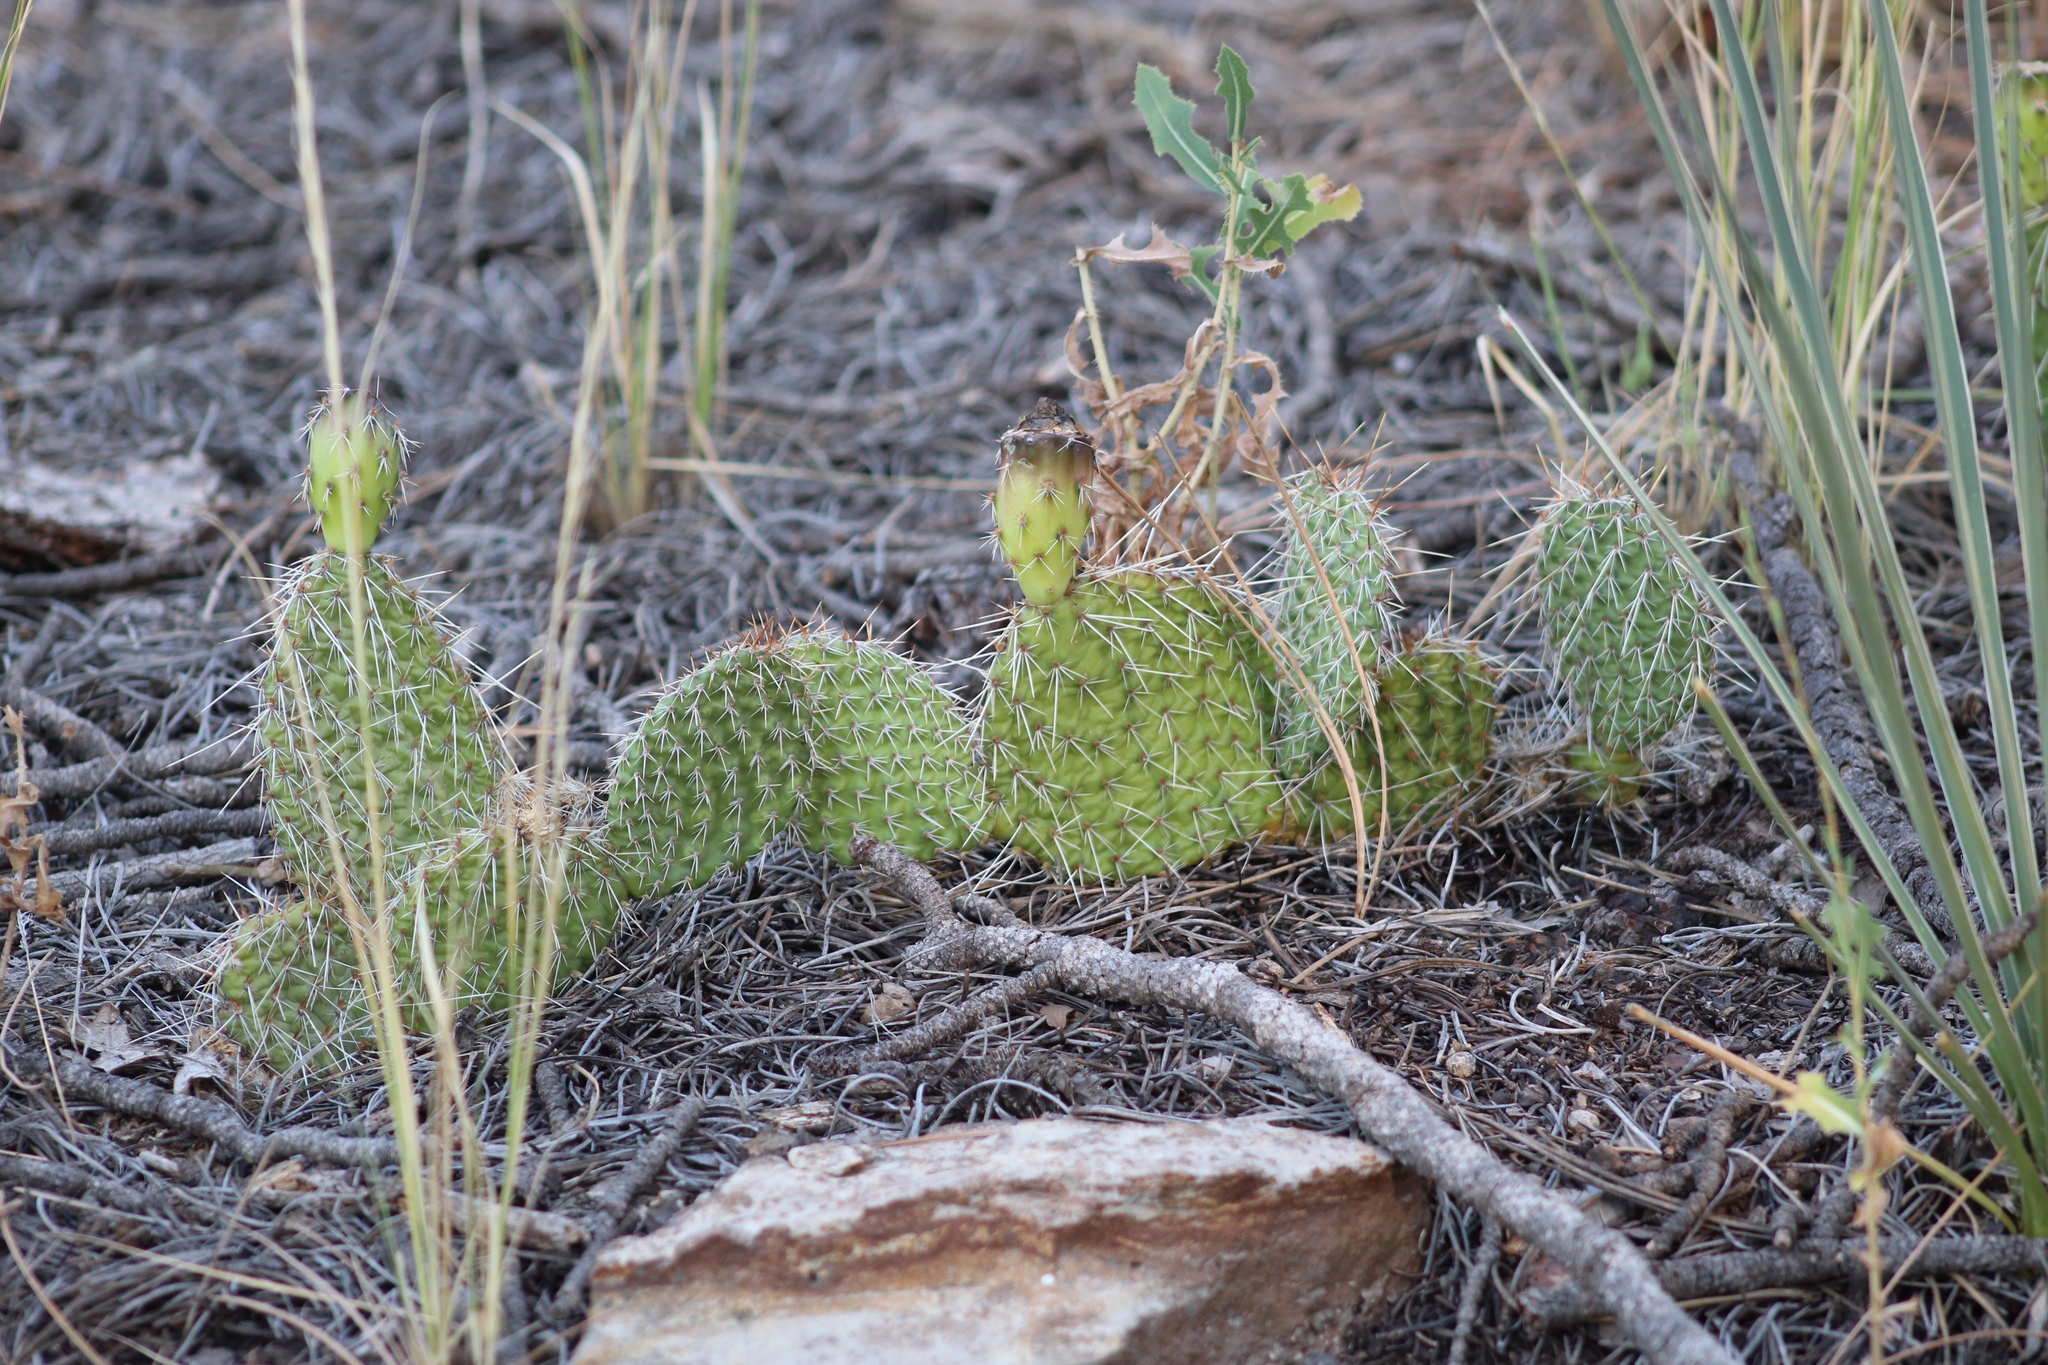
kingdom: Plantae
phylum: Tracheophyta
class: Magnoliopsida
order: Caryophyllales
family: Cactaceae
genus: Opuntia
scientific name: Opuntia polyacantha
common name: Plains prickly-pear
